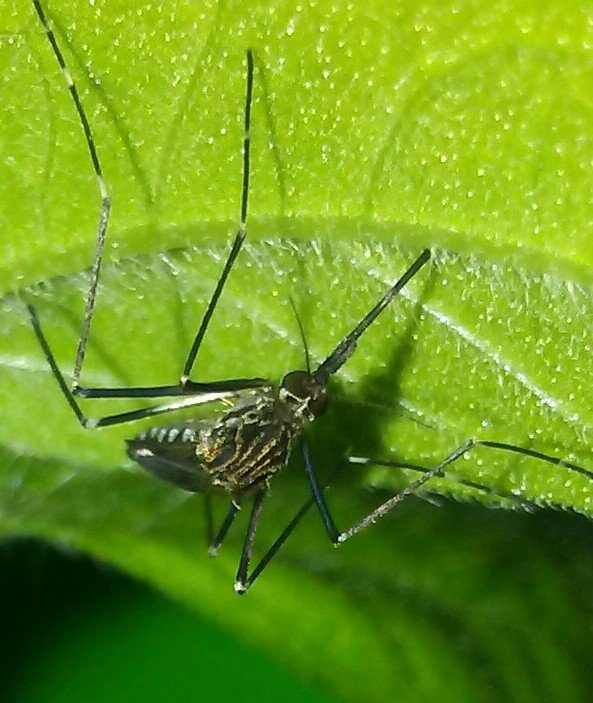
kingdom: Animalia
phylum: Arthropoda
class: Insecta
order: Diptera
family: Culicidae
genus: Aedes
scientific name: Aedes japonicus
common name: Asian bush mosquito
